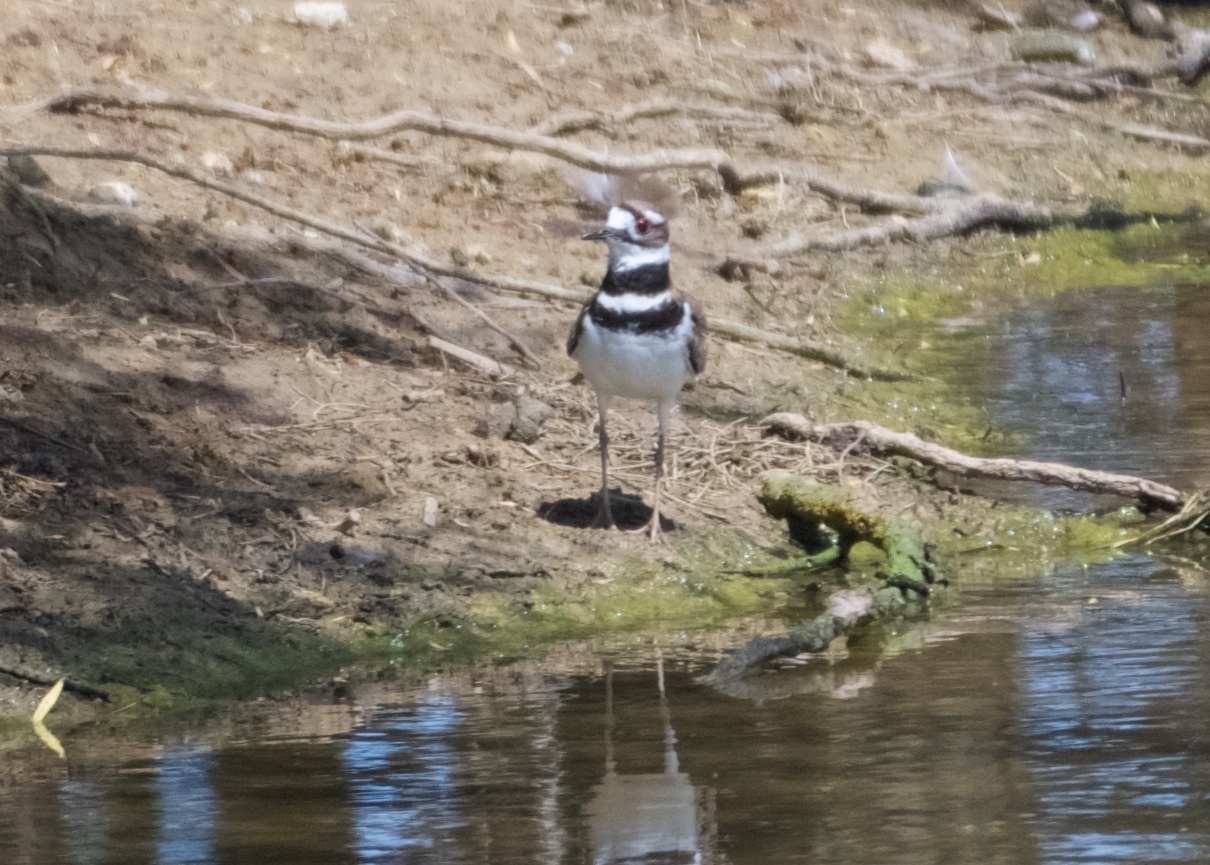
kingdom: Animalia
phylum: Chordata
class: Aves
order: Charadriiformes
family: Charadriidae
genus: Charadrius
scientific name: Charadrius vociferus
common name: Killdeer
